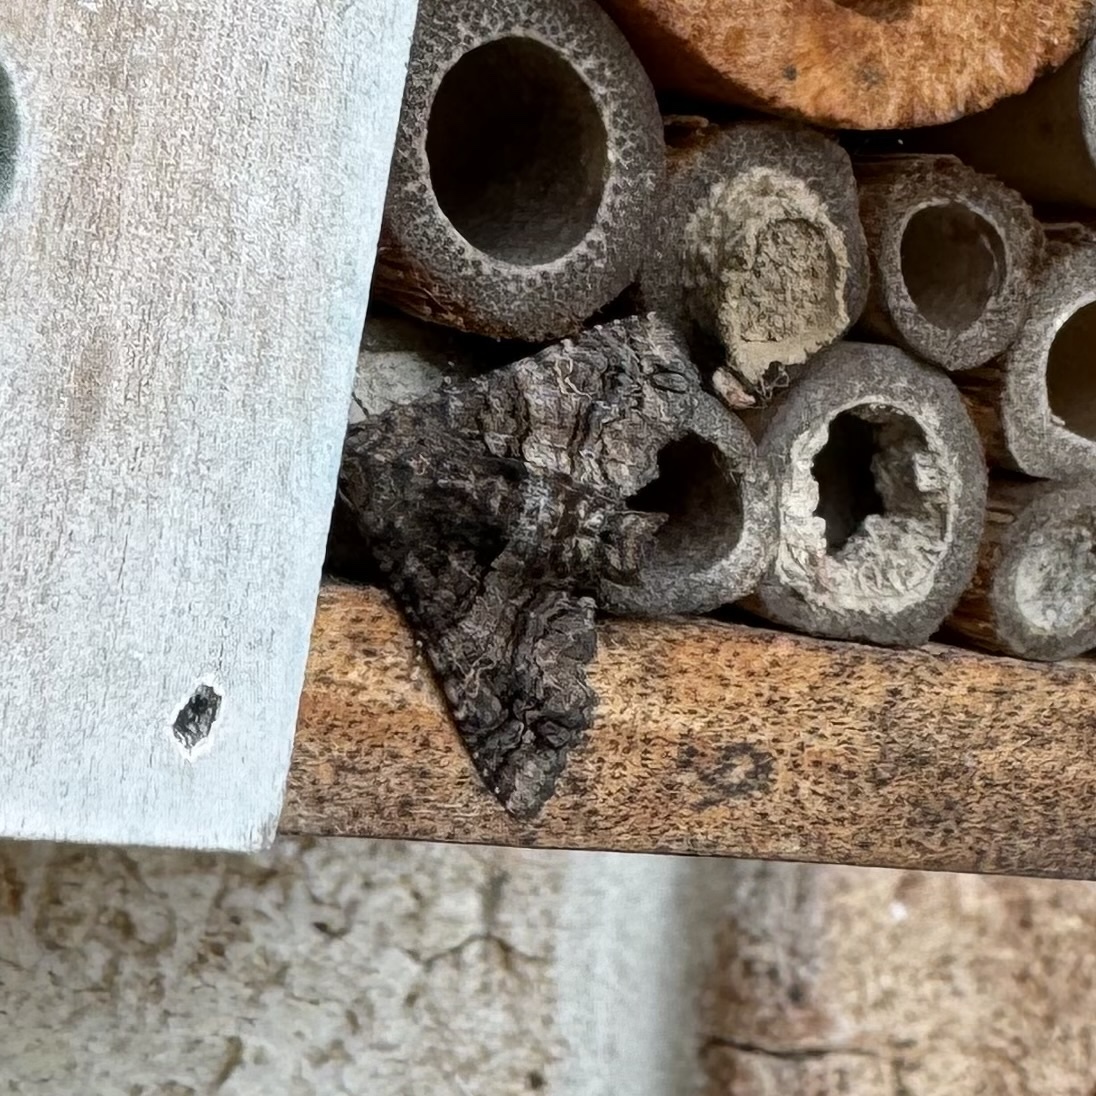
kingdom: Animalia
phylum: Arthropoda
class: Insecta
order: Lepidoptera
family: Euteliidae
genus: Pataeta
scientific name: Pataeta carbo
